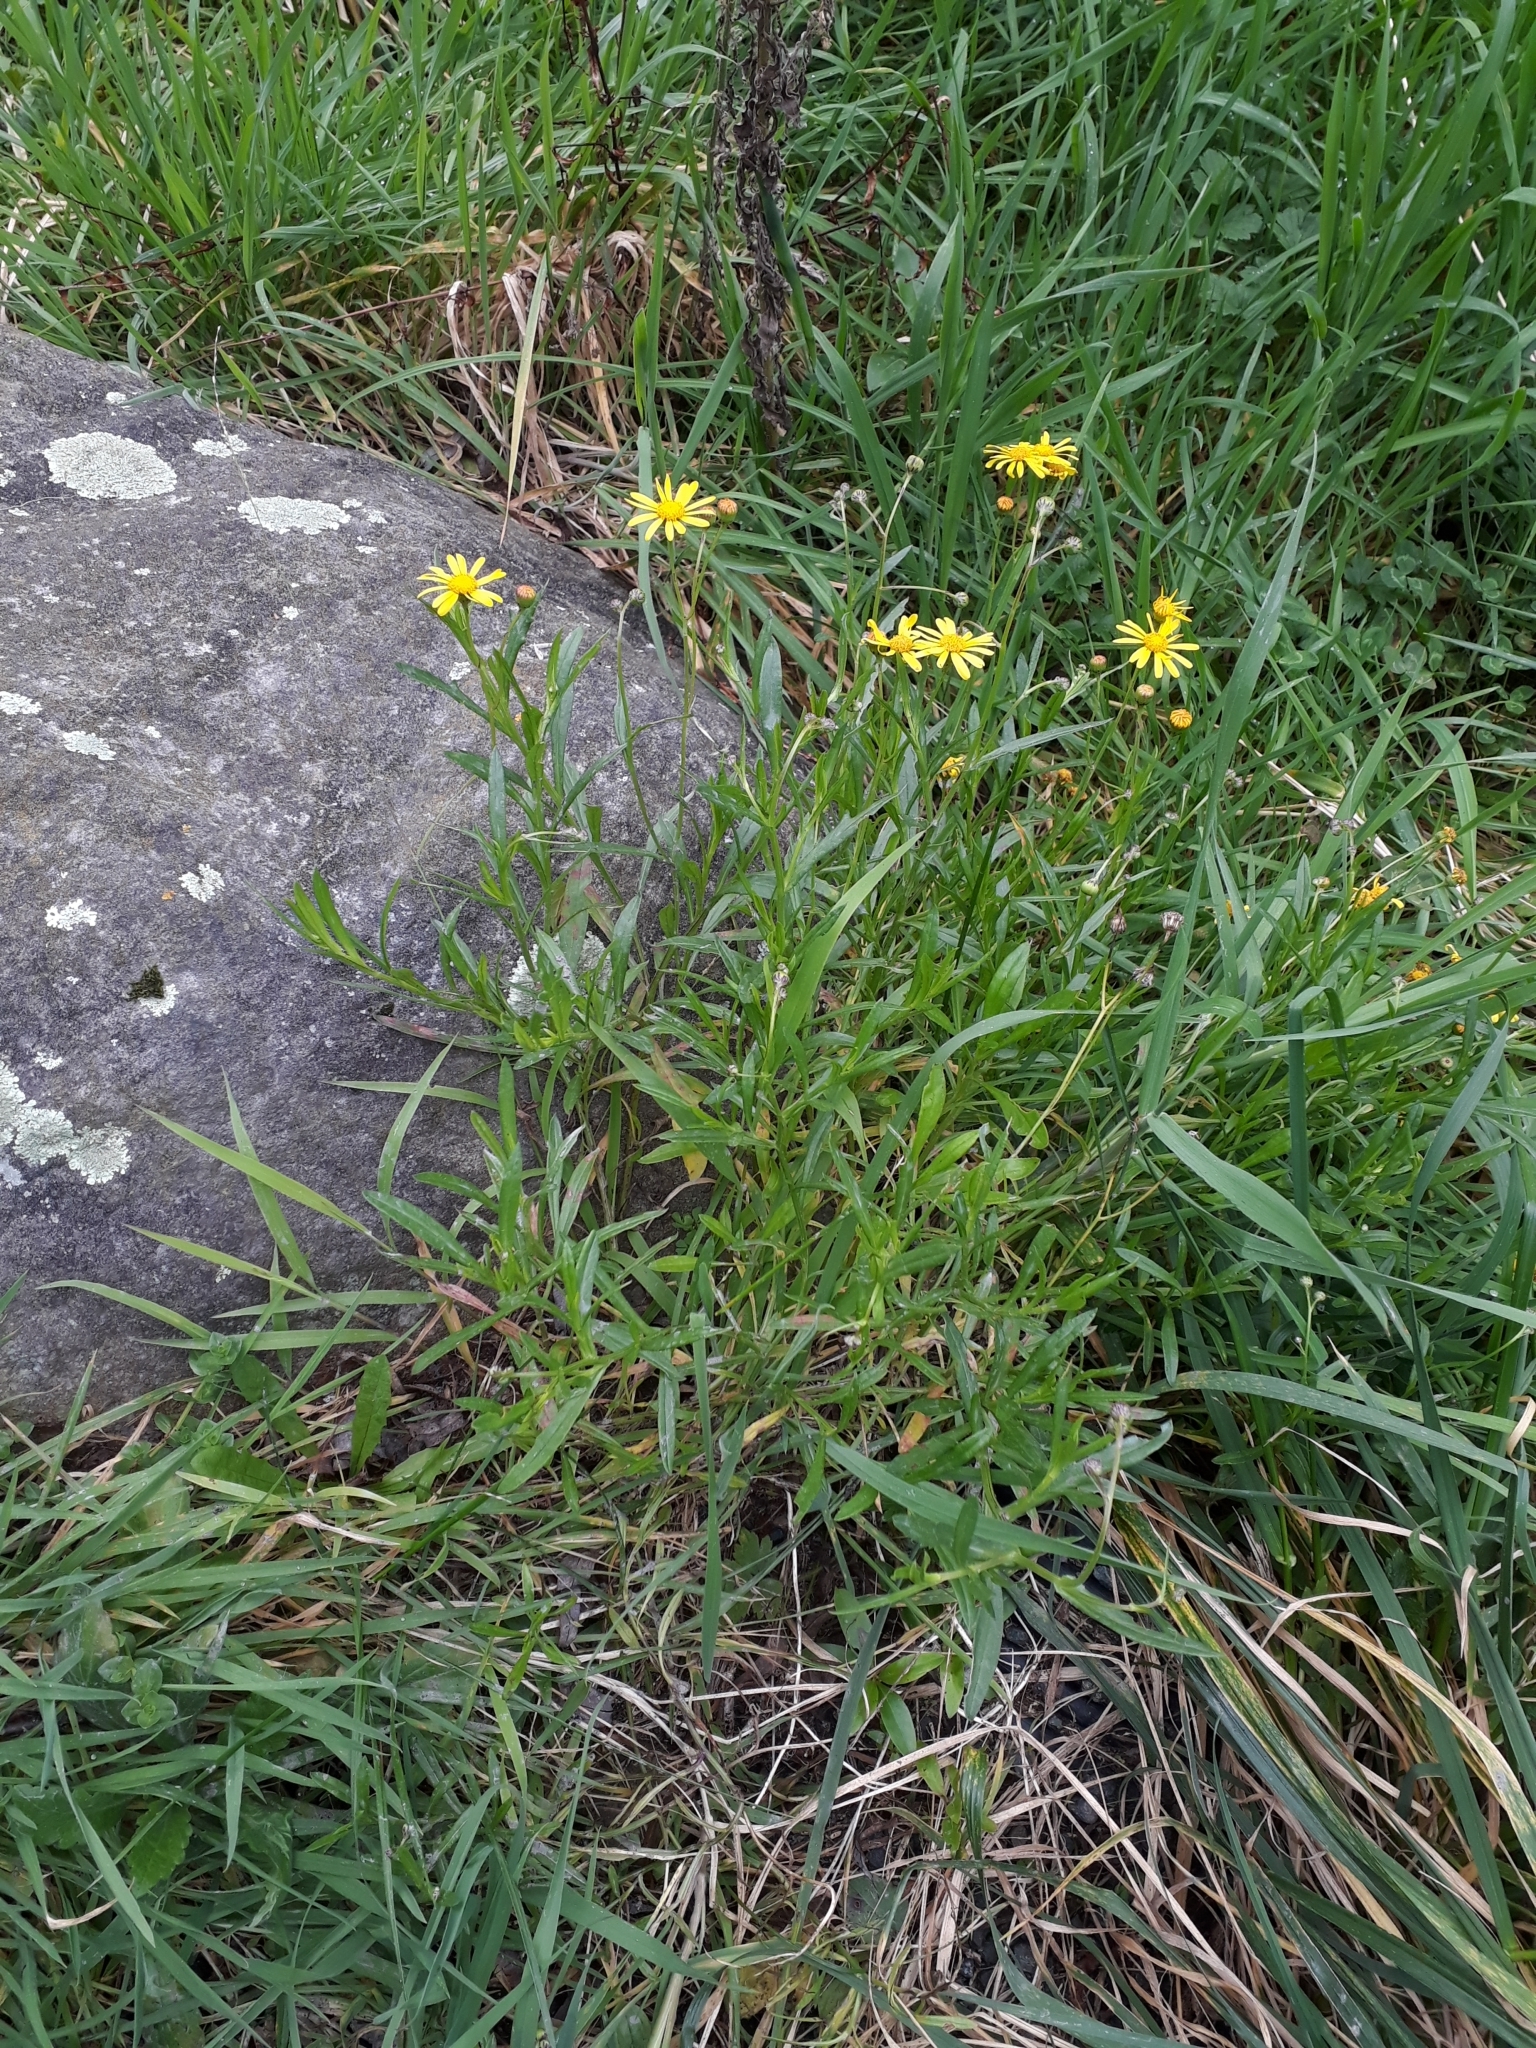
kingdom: Plantae
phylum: Tracheophyta
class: Magnoliopsida
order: Asterales
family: Asteraceae
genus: Senecio
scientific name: Senecio skirrhodon
